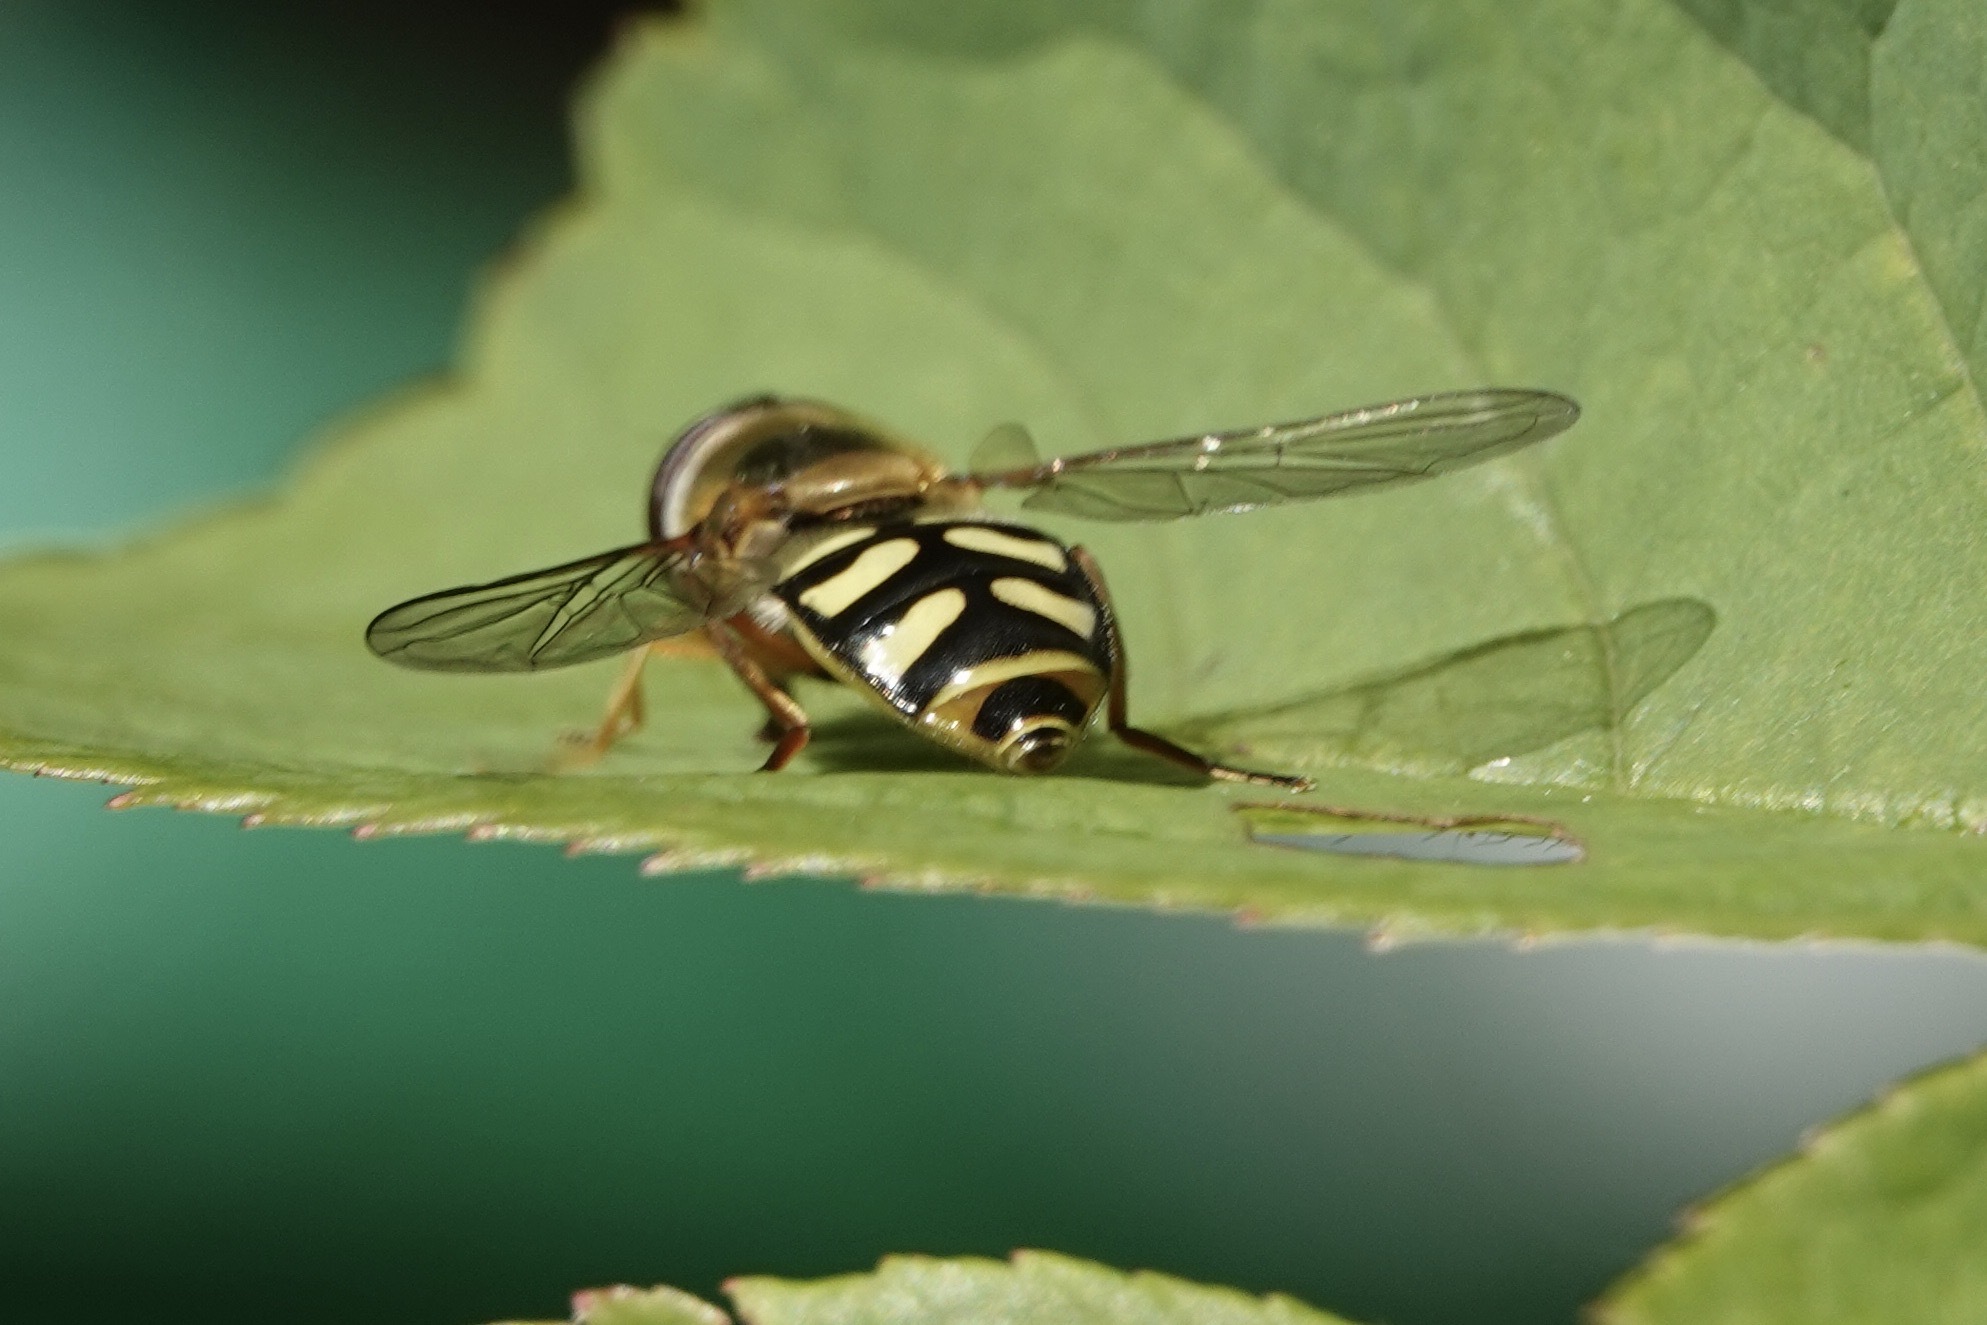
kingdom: Animalia
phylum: Arthropoda
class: Insecta
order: Diptera
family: Syrphidae
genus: Eupeodes
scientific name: Eupeodes luniger
